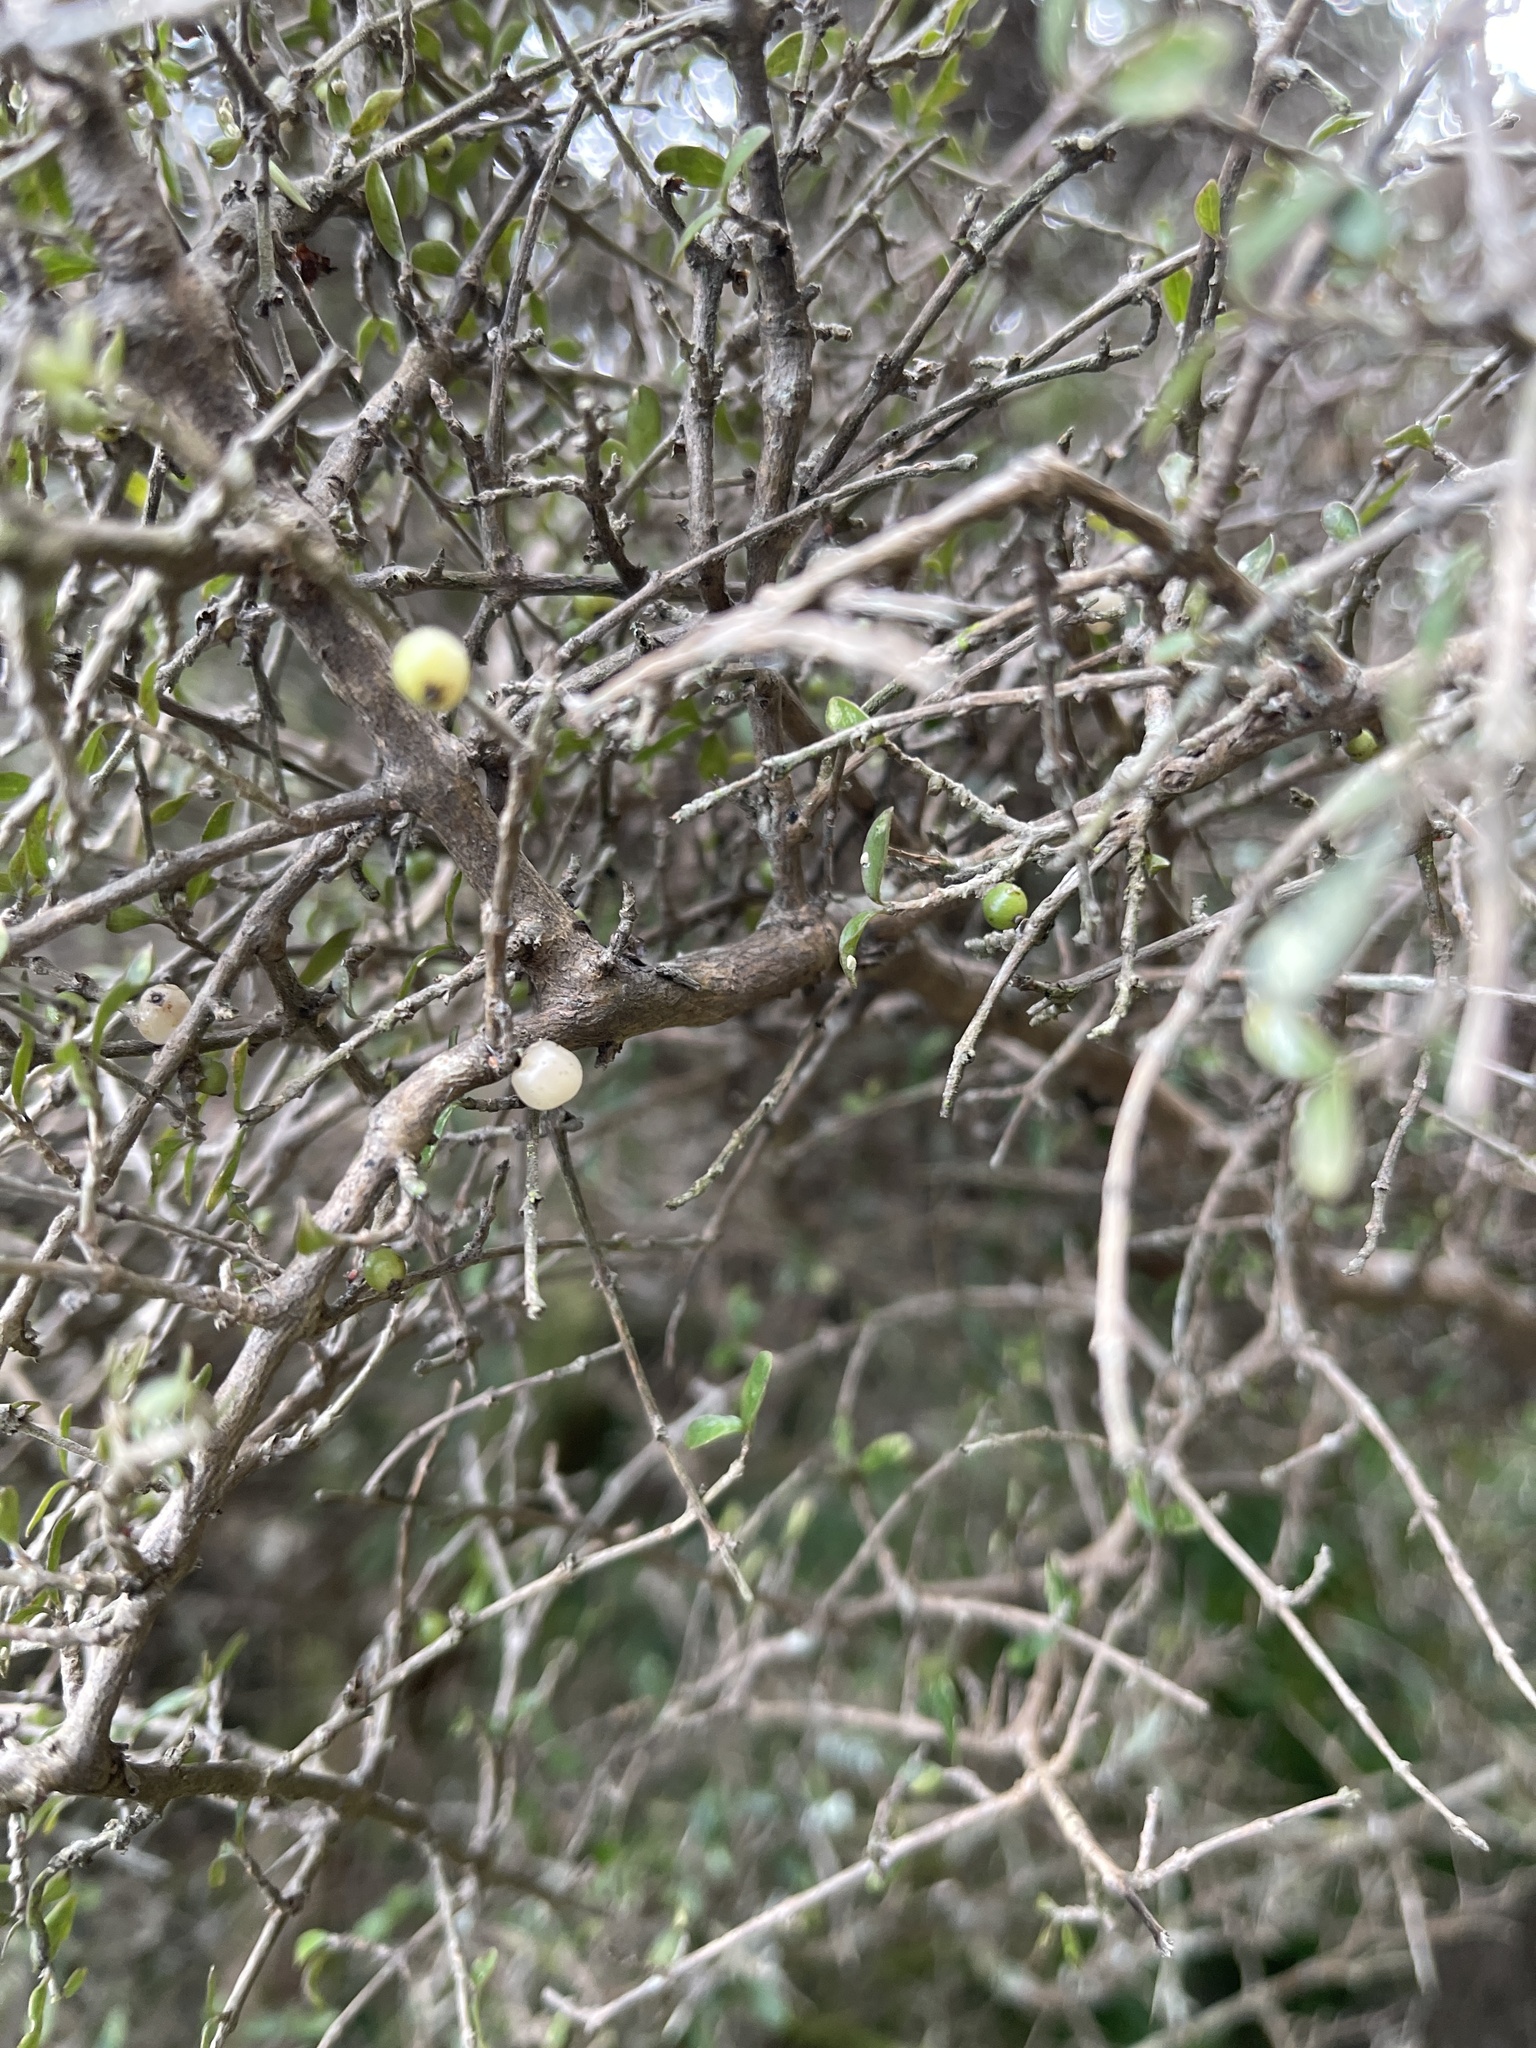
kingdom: Plantae
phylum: Tracheophyta
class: Magnoliopsida
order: Gentianales
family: Rubiaceae
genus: Coprosma
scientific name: Coprosma dumosa
